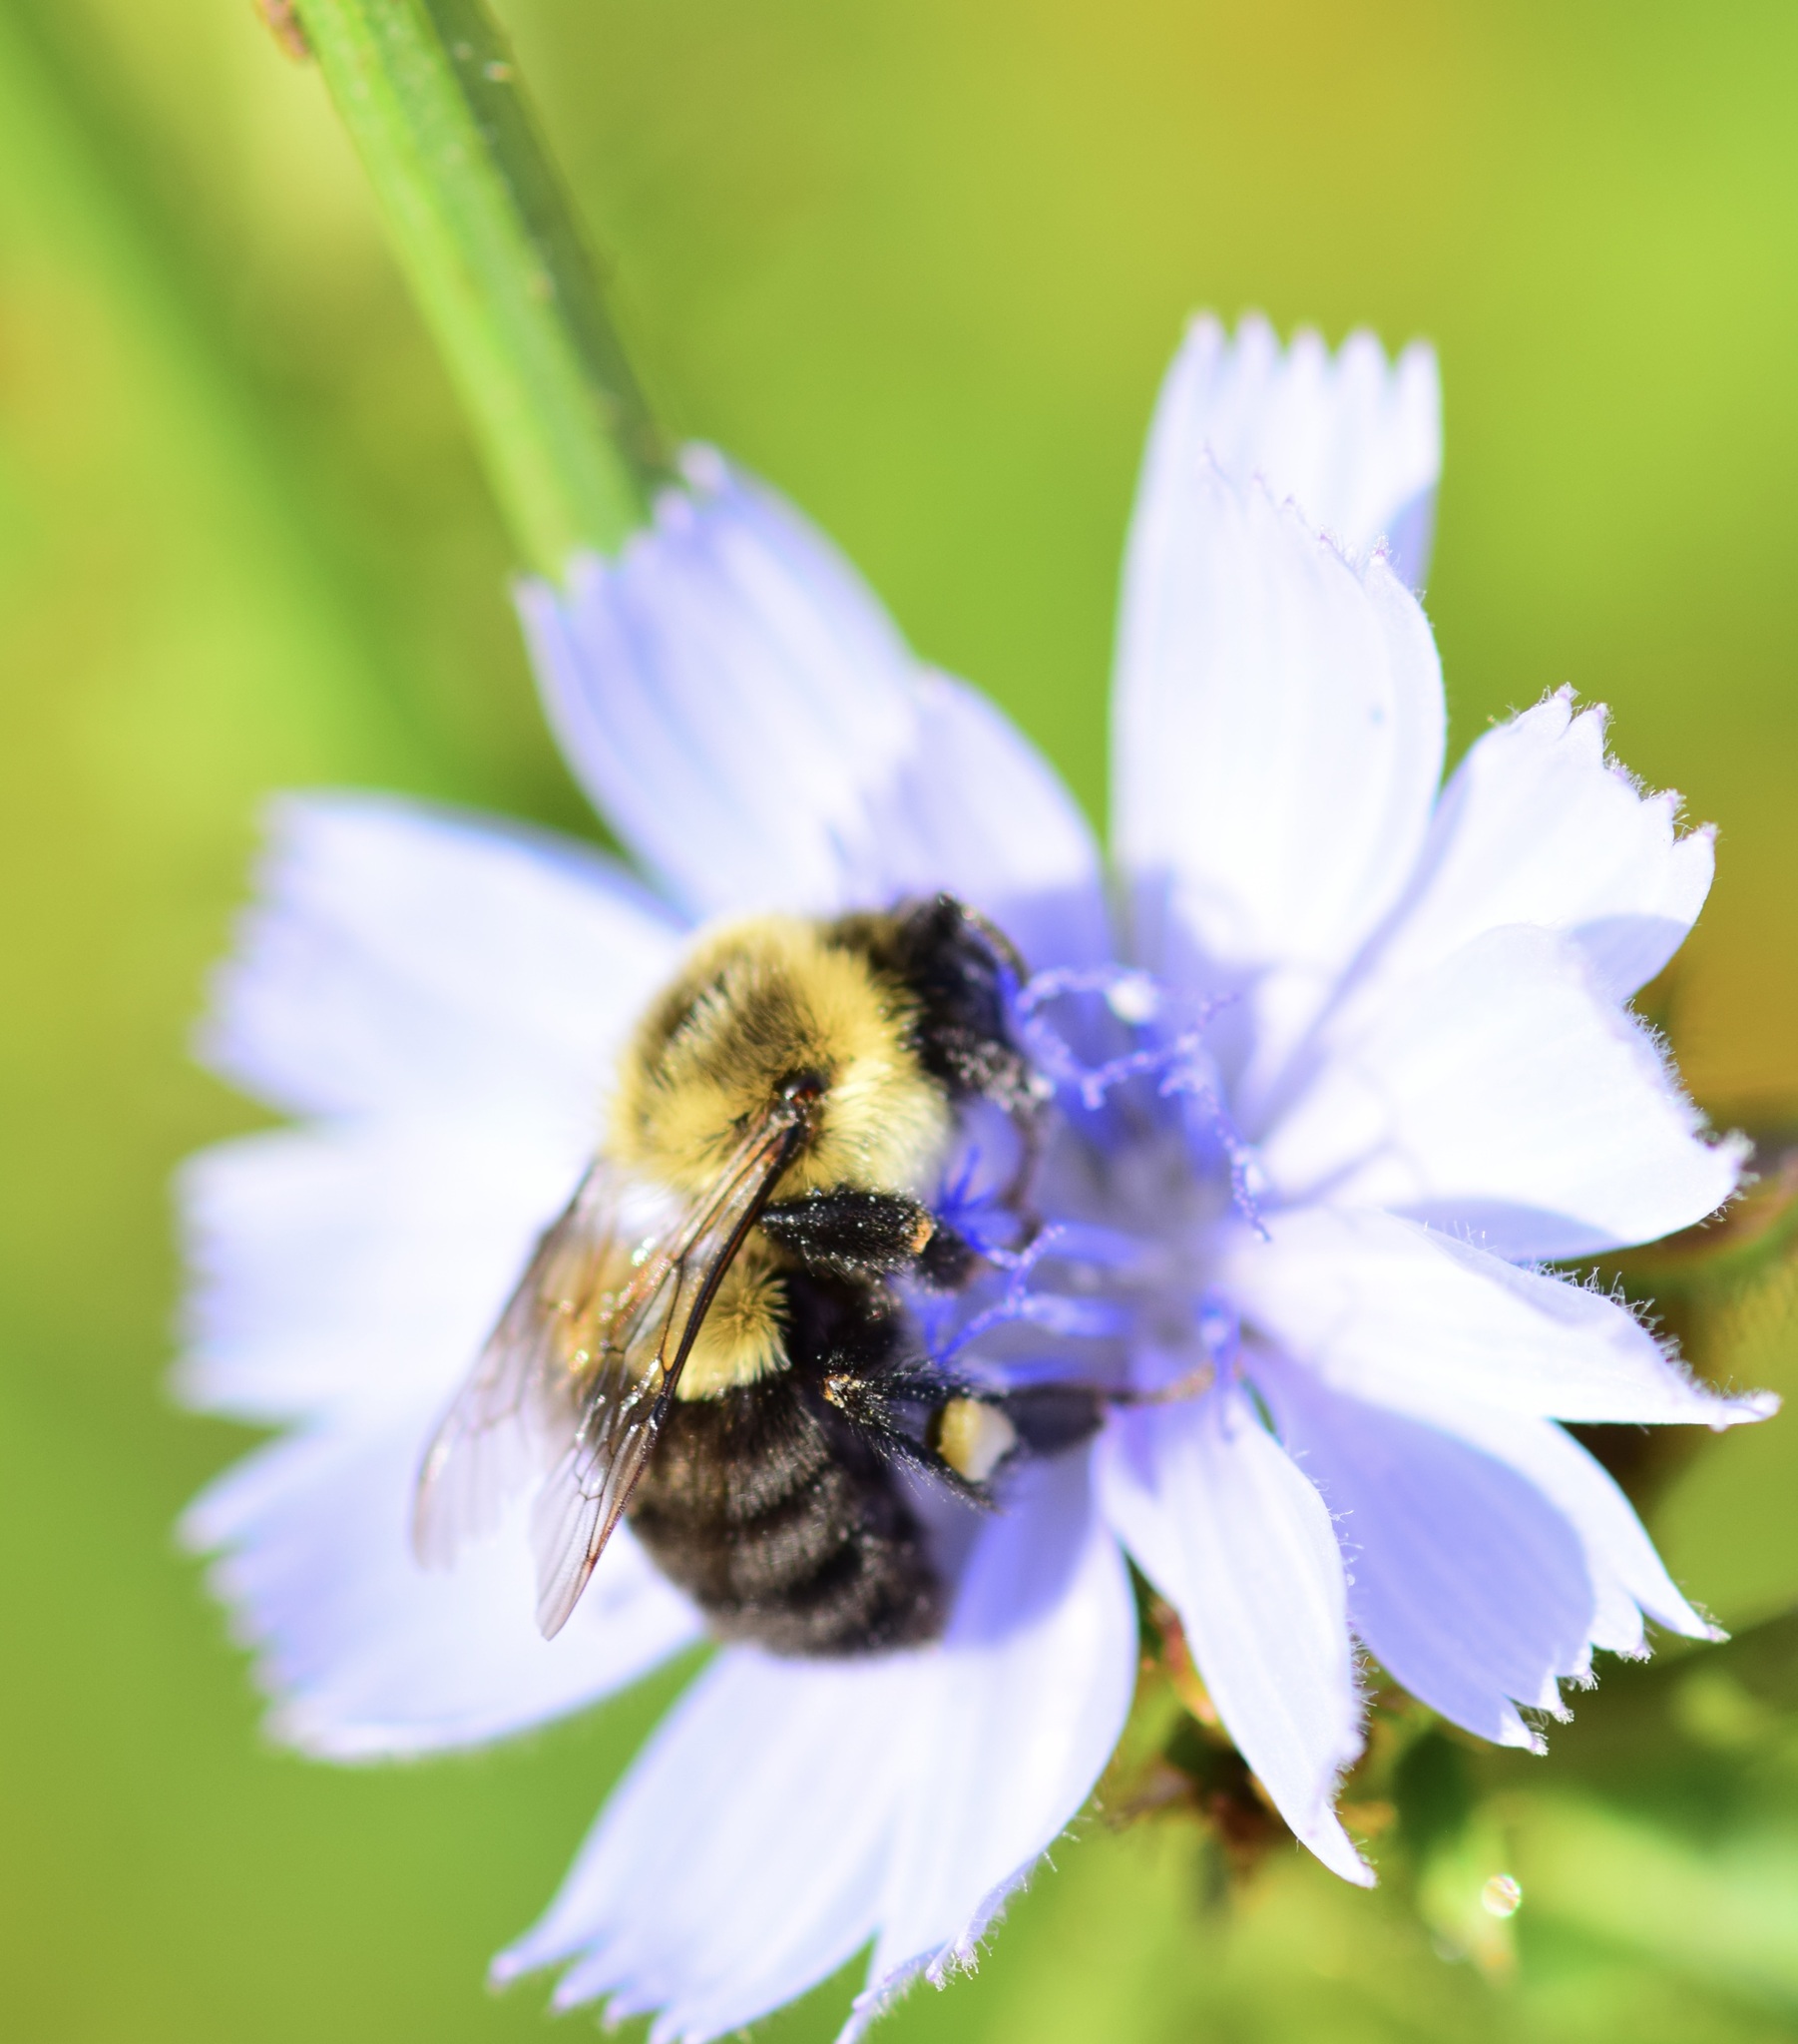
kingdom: Animalia
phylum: Arthropoda
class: Insecta
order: Hymenoptera
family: Apidae
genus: Bombus
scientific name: Bombus impatiens
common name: Common eastern bumble bee
